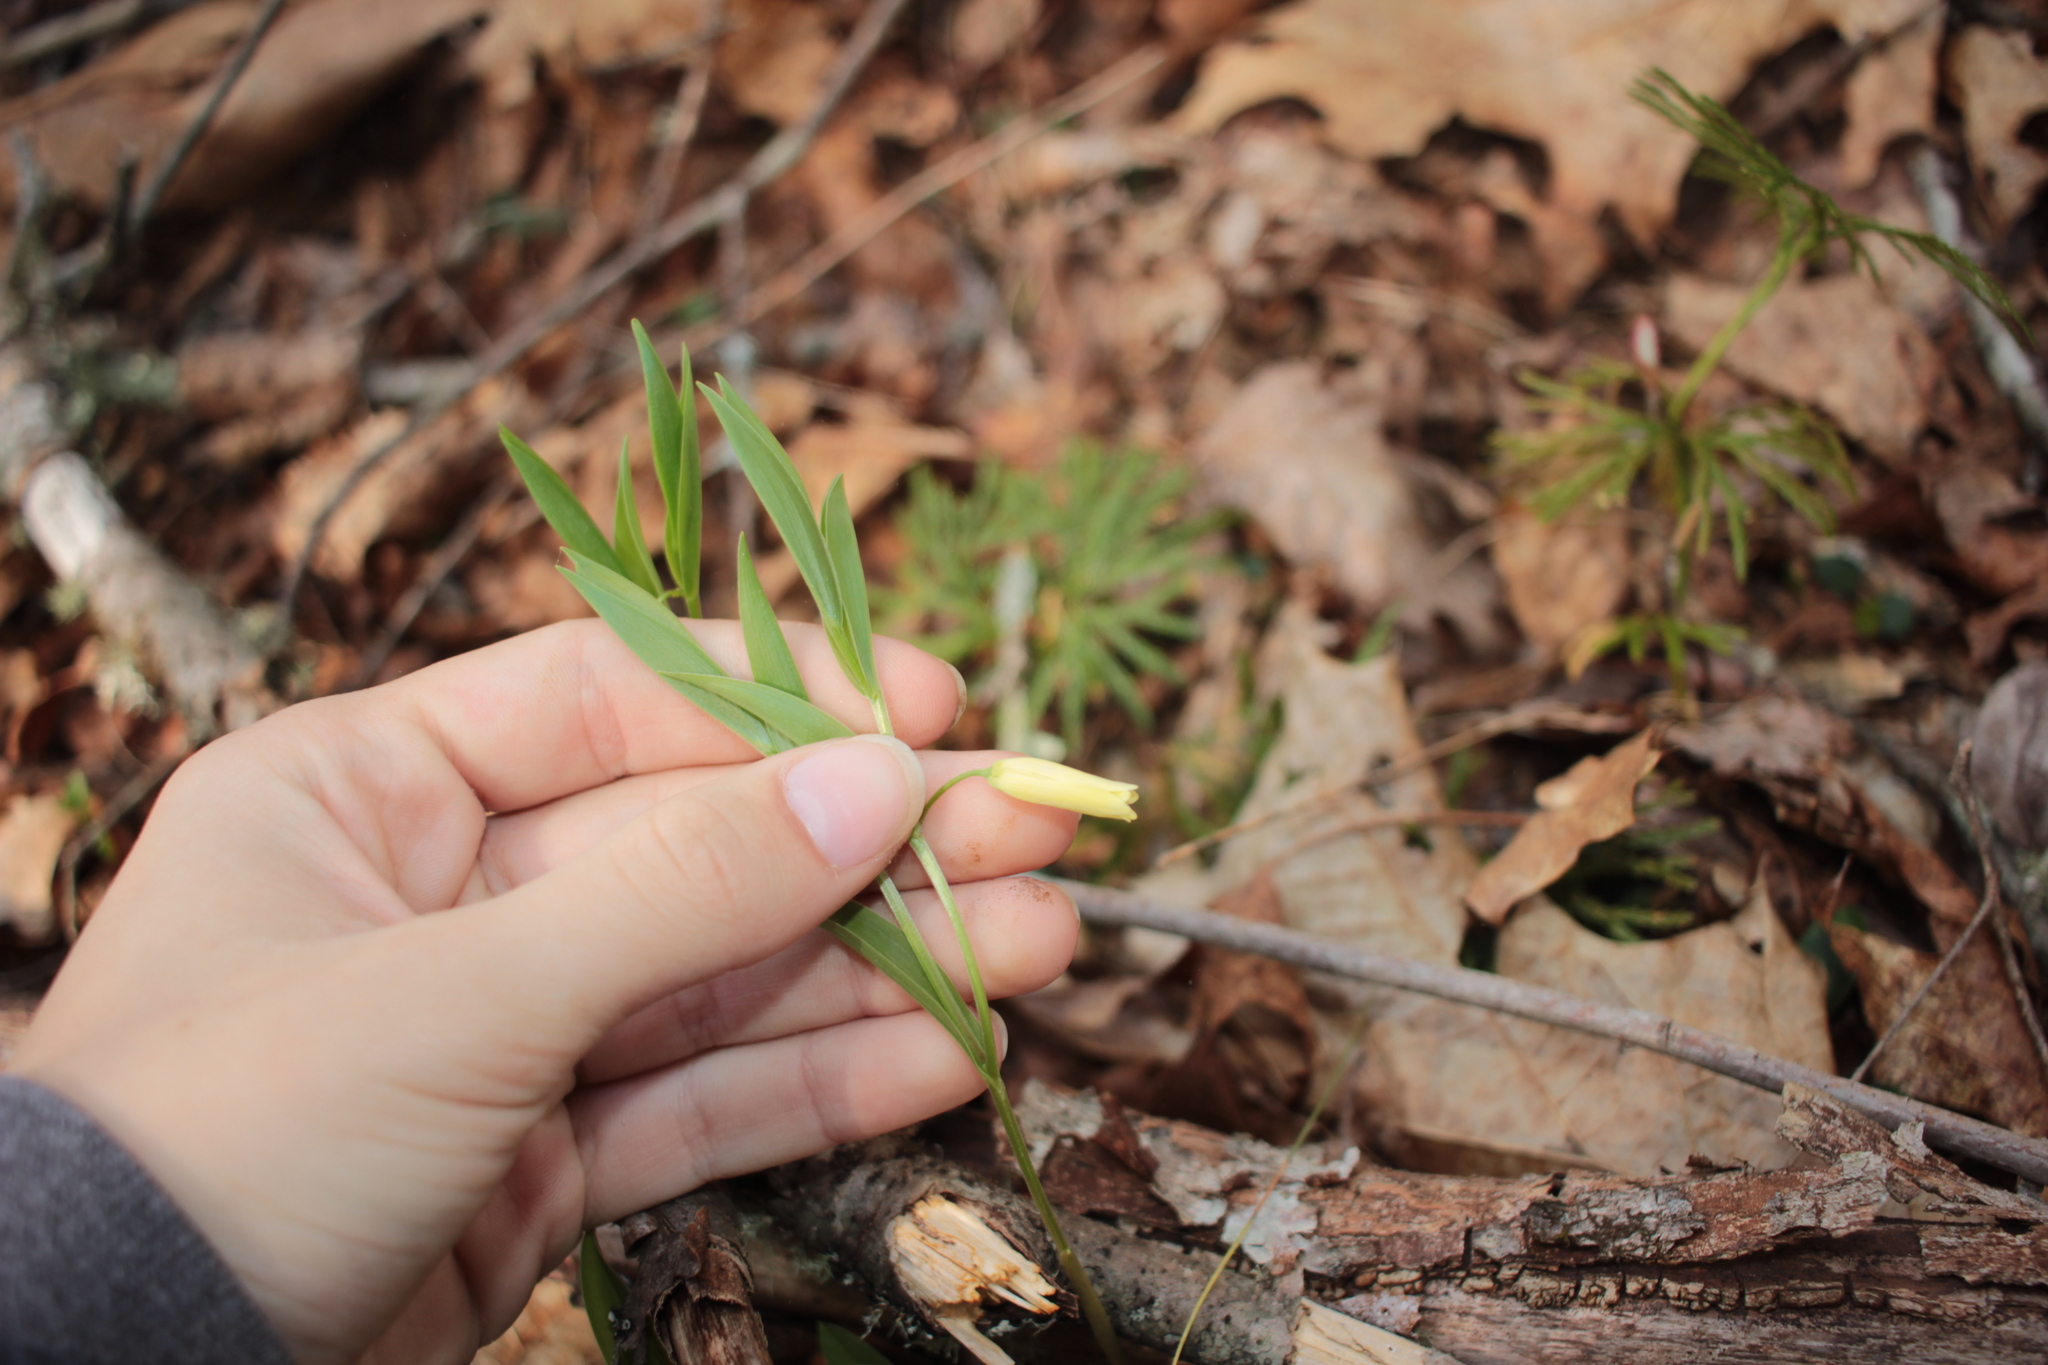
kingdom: Plantae
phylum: Tracheophyta
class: Liliopsida
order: Liliales
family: Colchicaceae
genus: Uvularia
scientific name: Uvularia puberula
